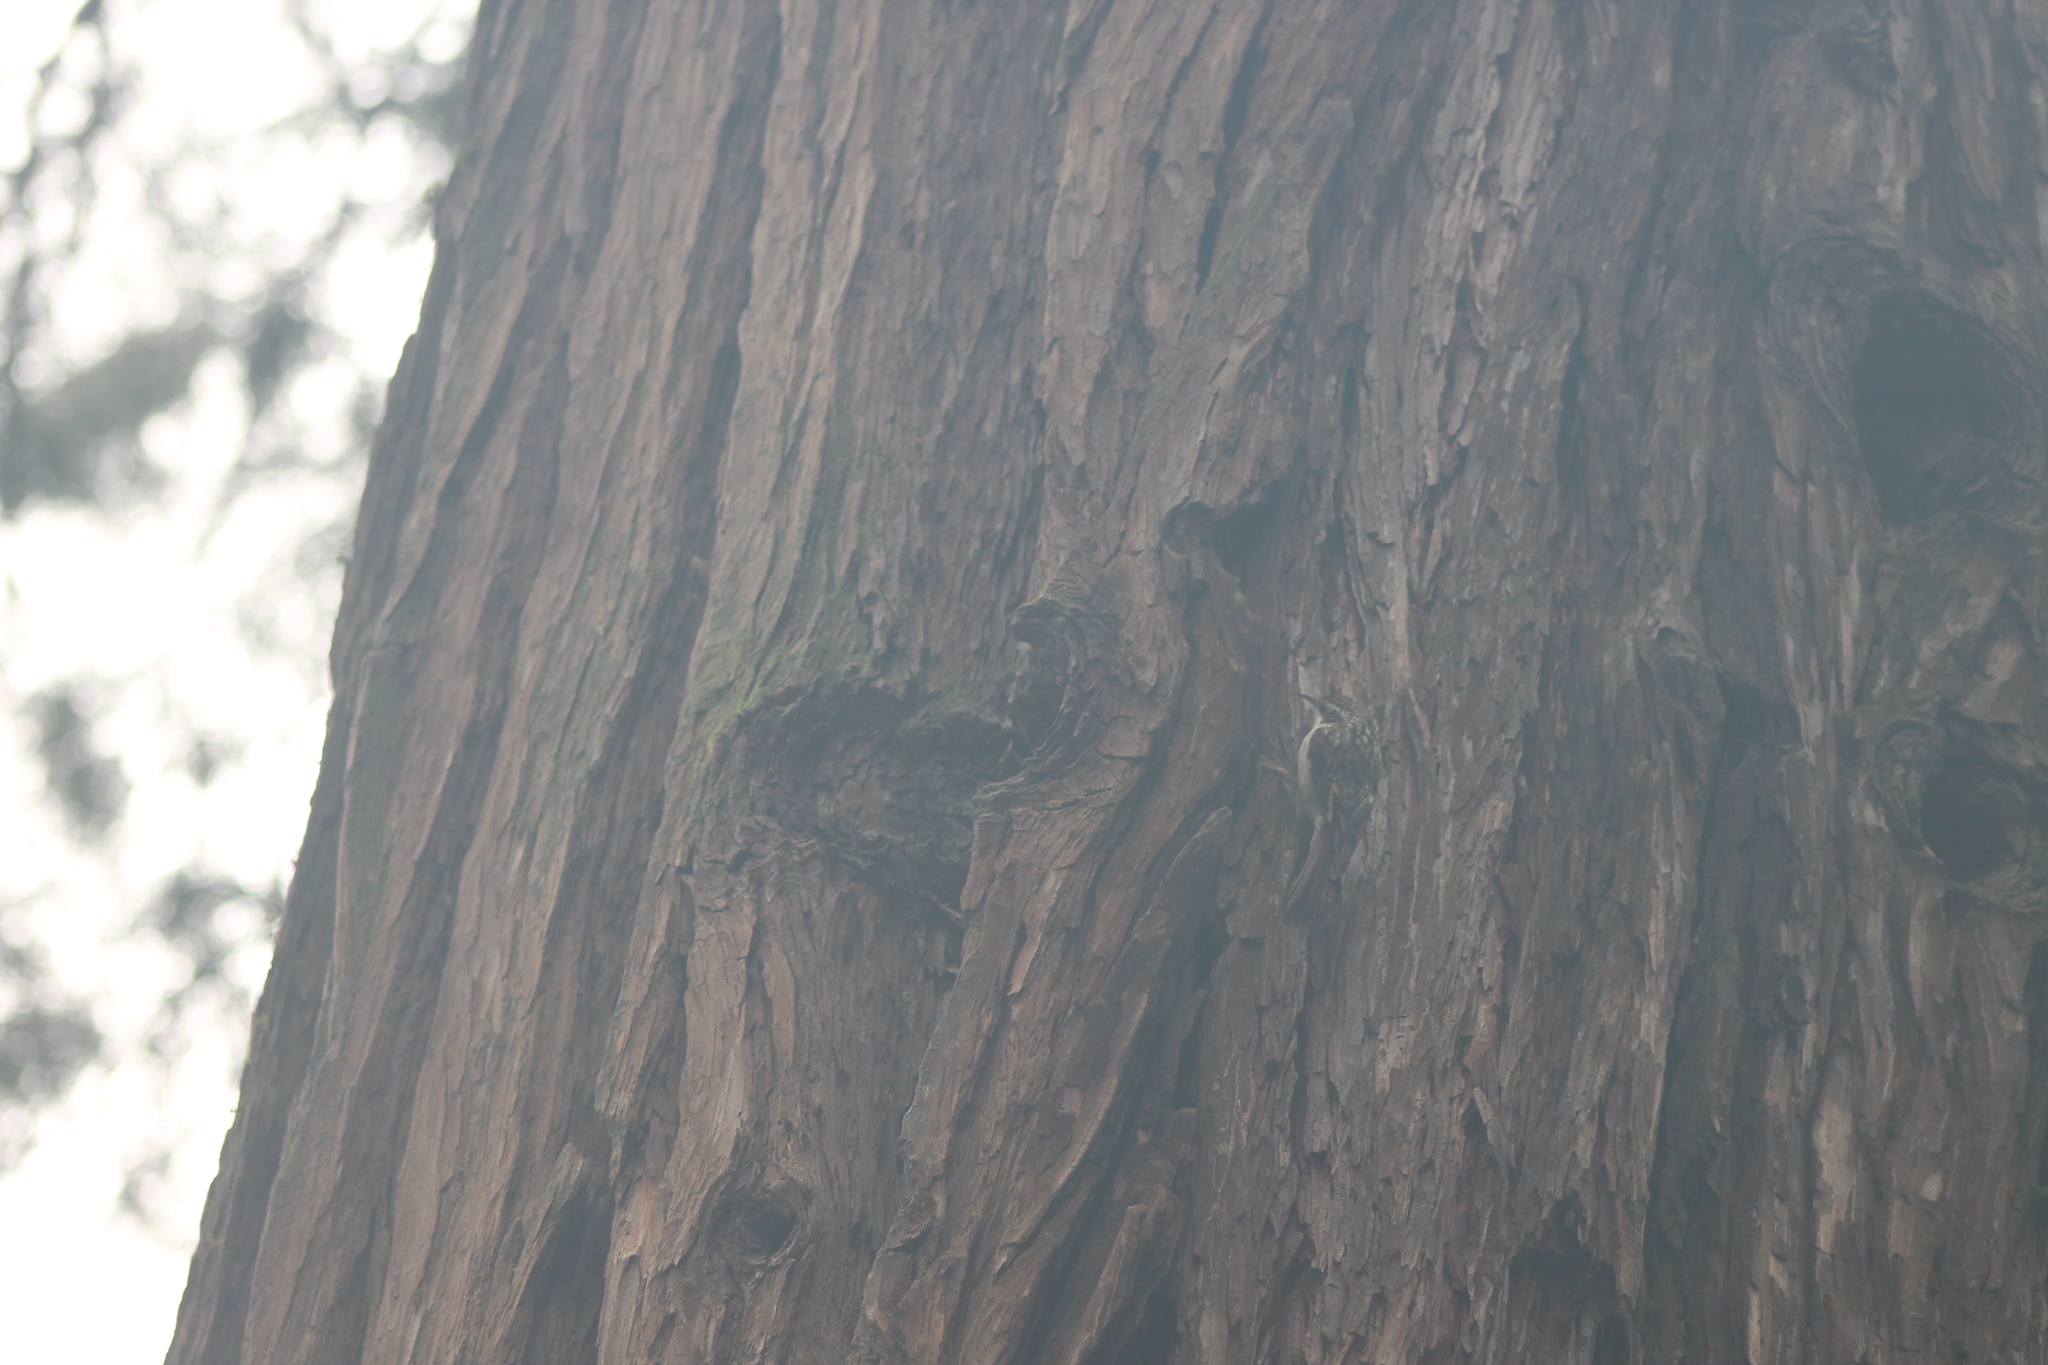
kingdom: Animalia
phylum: Chordata
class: Aves
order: Passeriformes
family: Certhiidae
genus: Certhia
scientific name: Certhia americana
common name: Brown creeper
